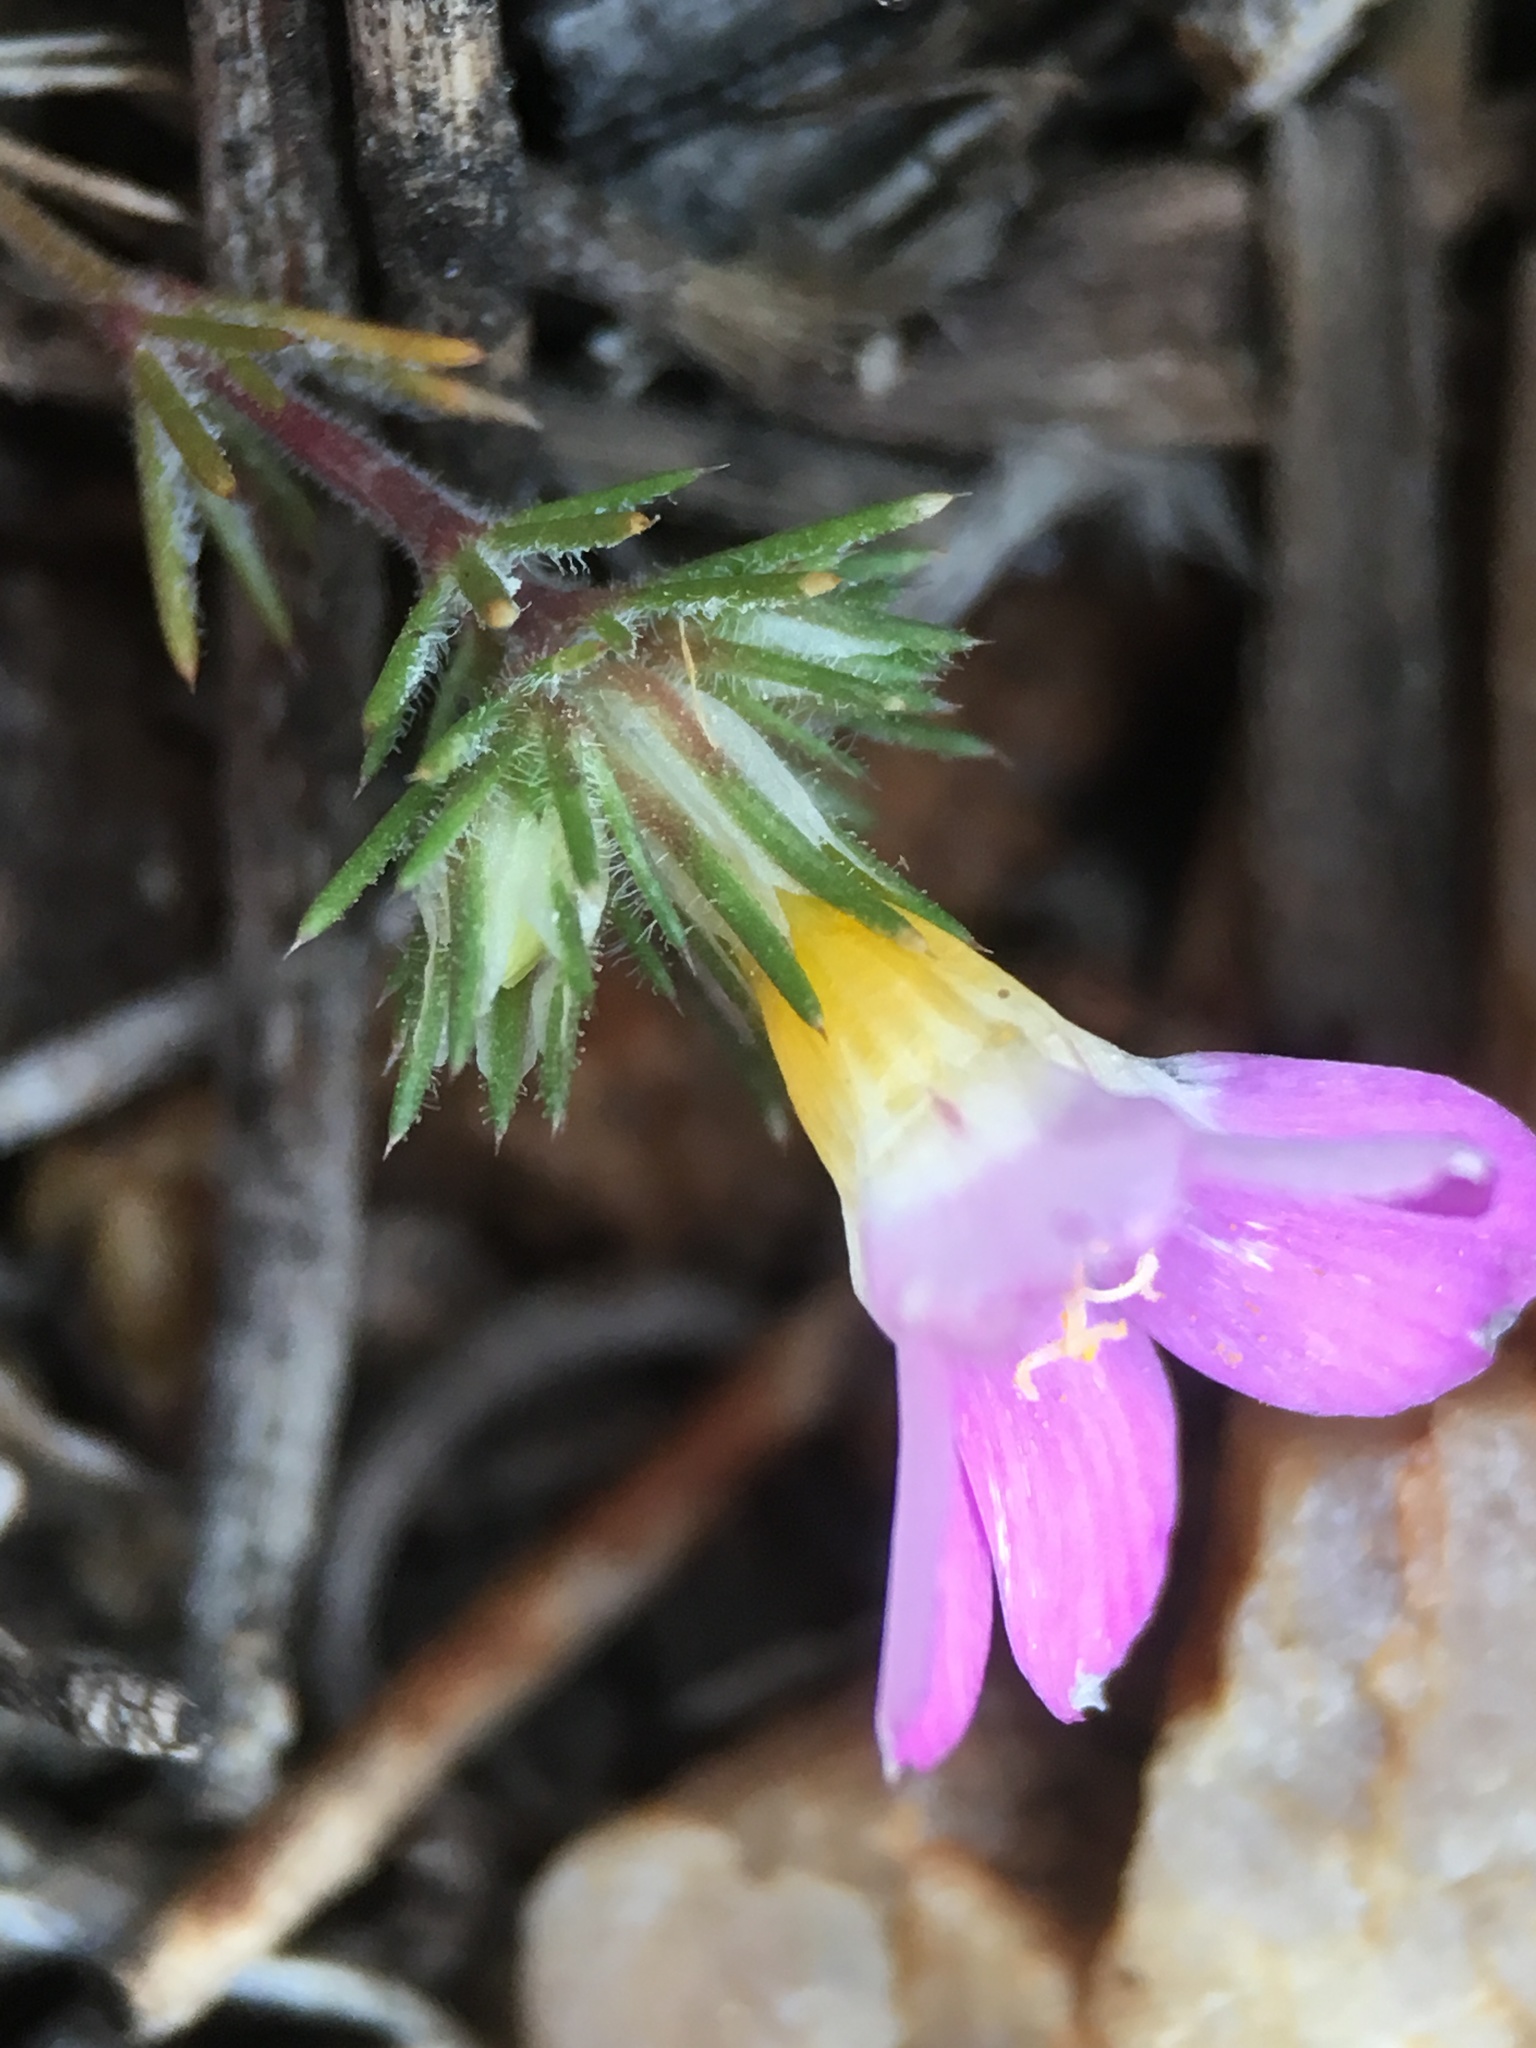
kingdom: Plantae
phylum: Tracheophyta
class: Magnoliopsida
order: Ericales
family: Polemoniaceae
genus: Linanthus
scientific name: Linanthus killipii
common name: Baldwin lake linanthus
